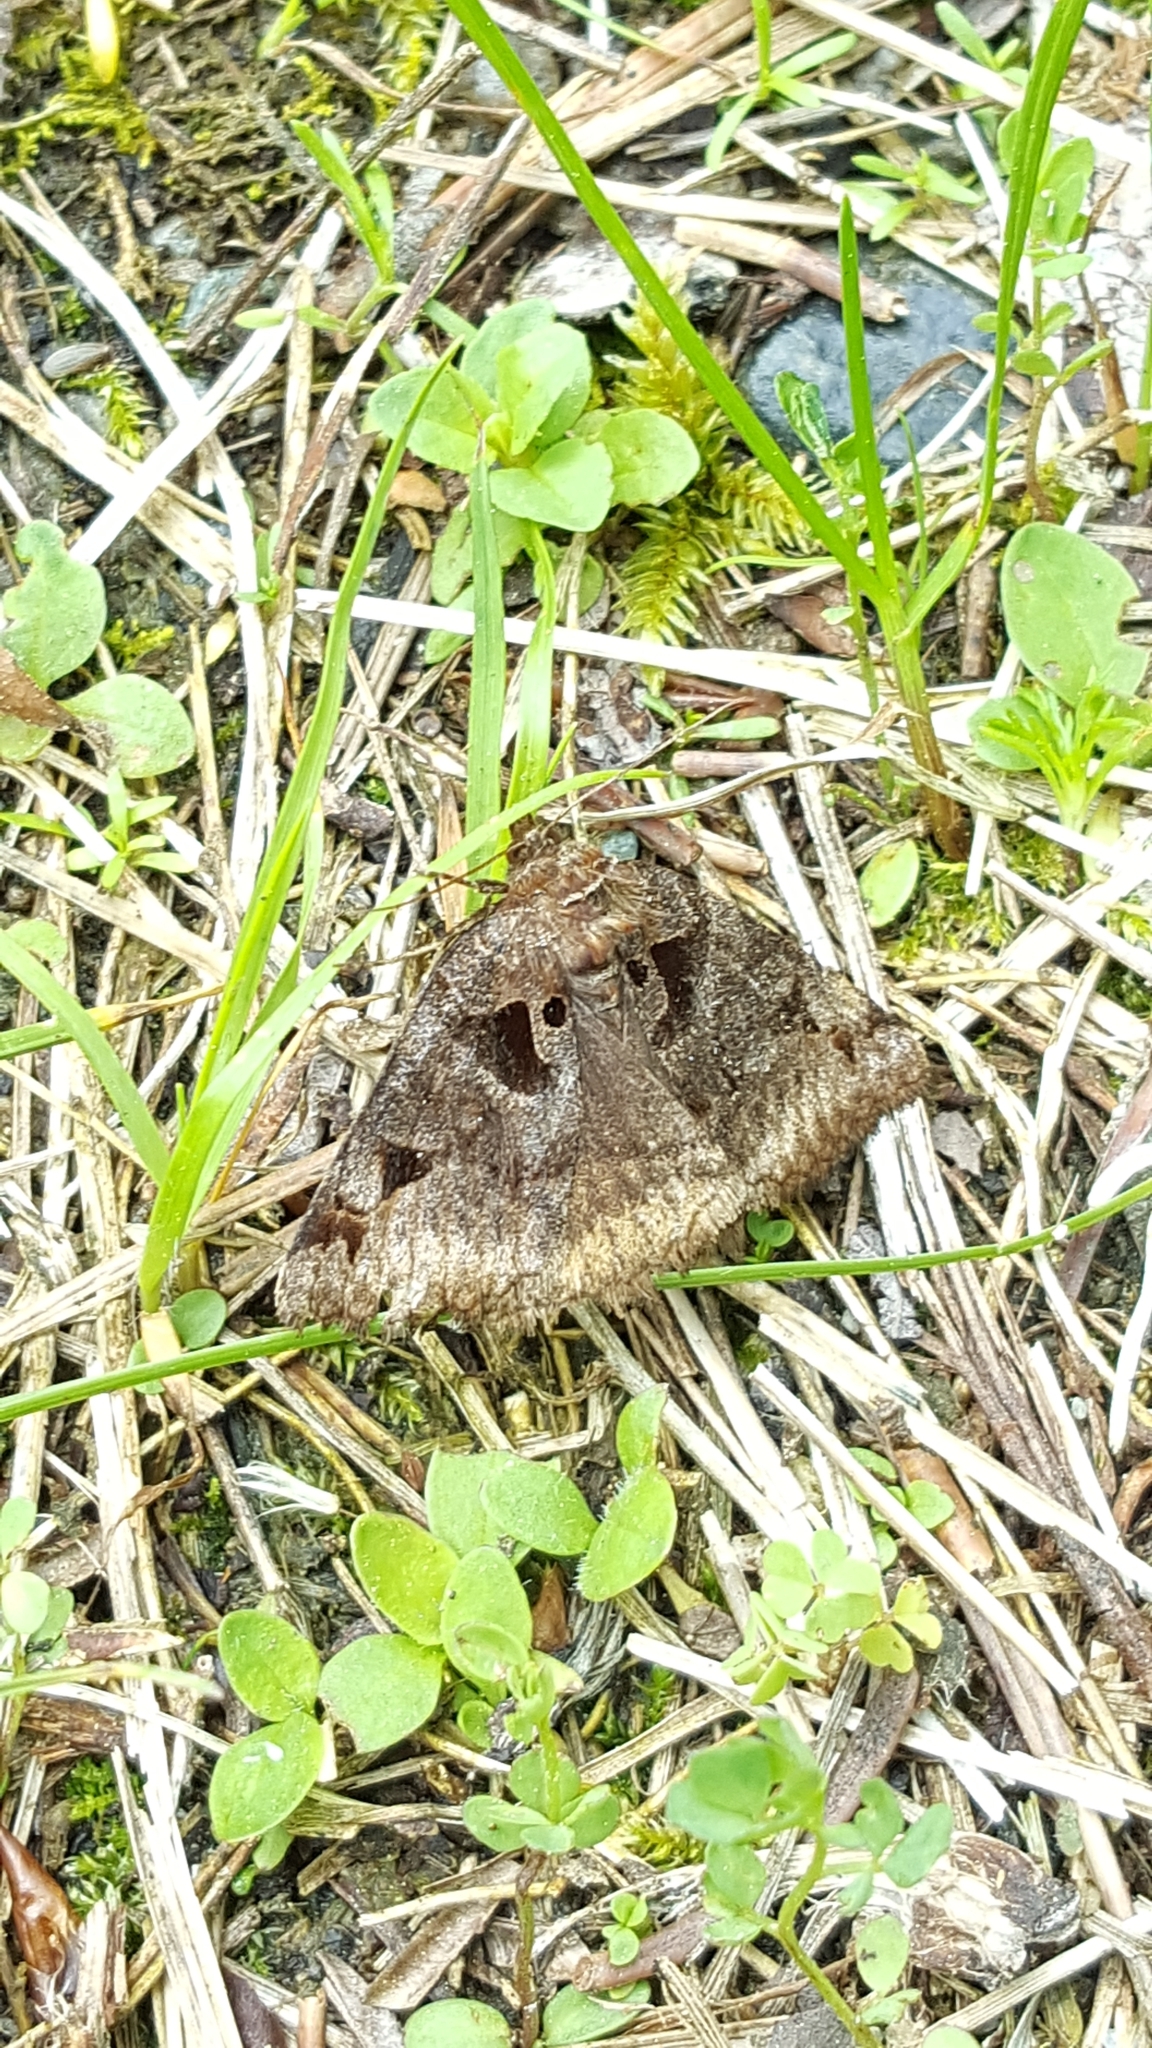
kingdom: Animalia
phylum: Arthropoda
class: Insecta
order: Lepidoptera
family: Erebidae
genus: Euclidia
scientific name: Euclidia cuspidea
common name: Toothed somberwing
